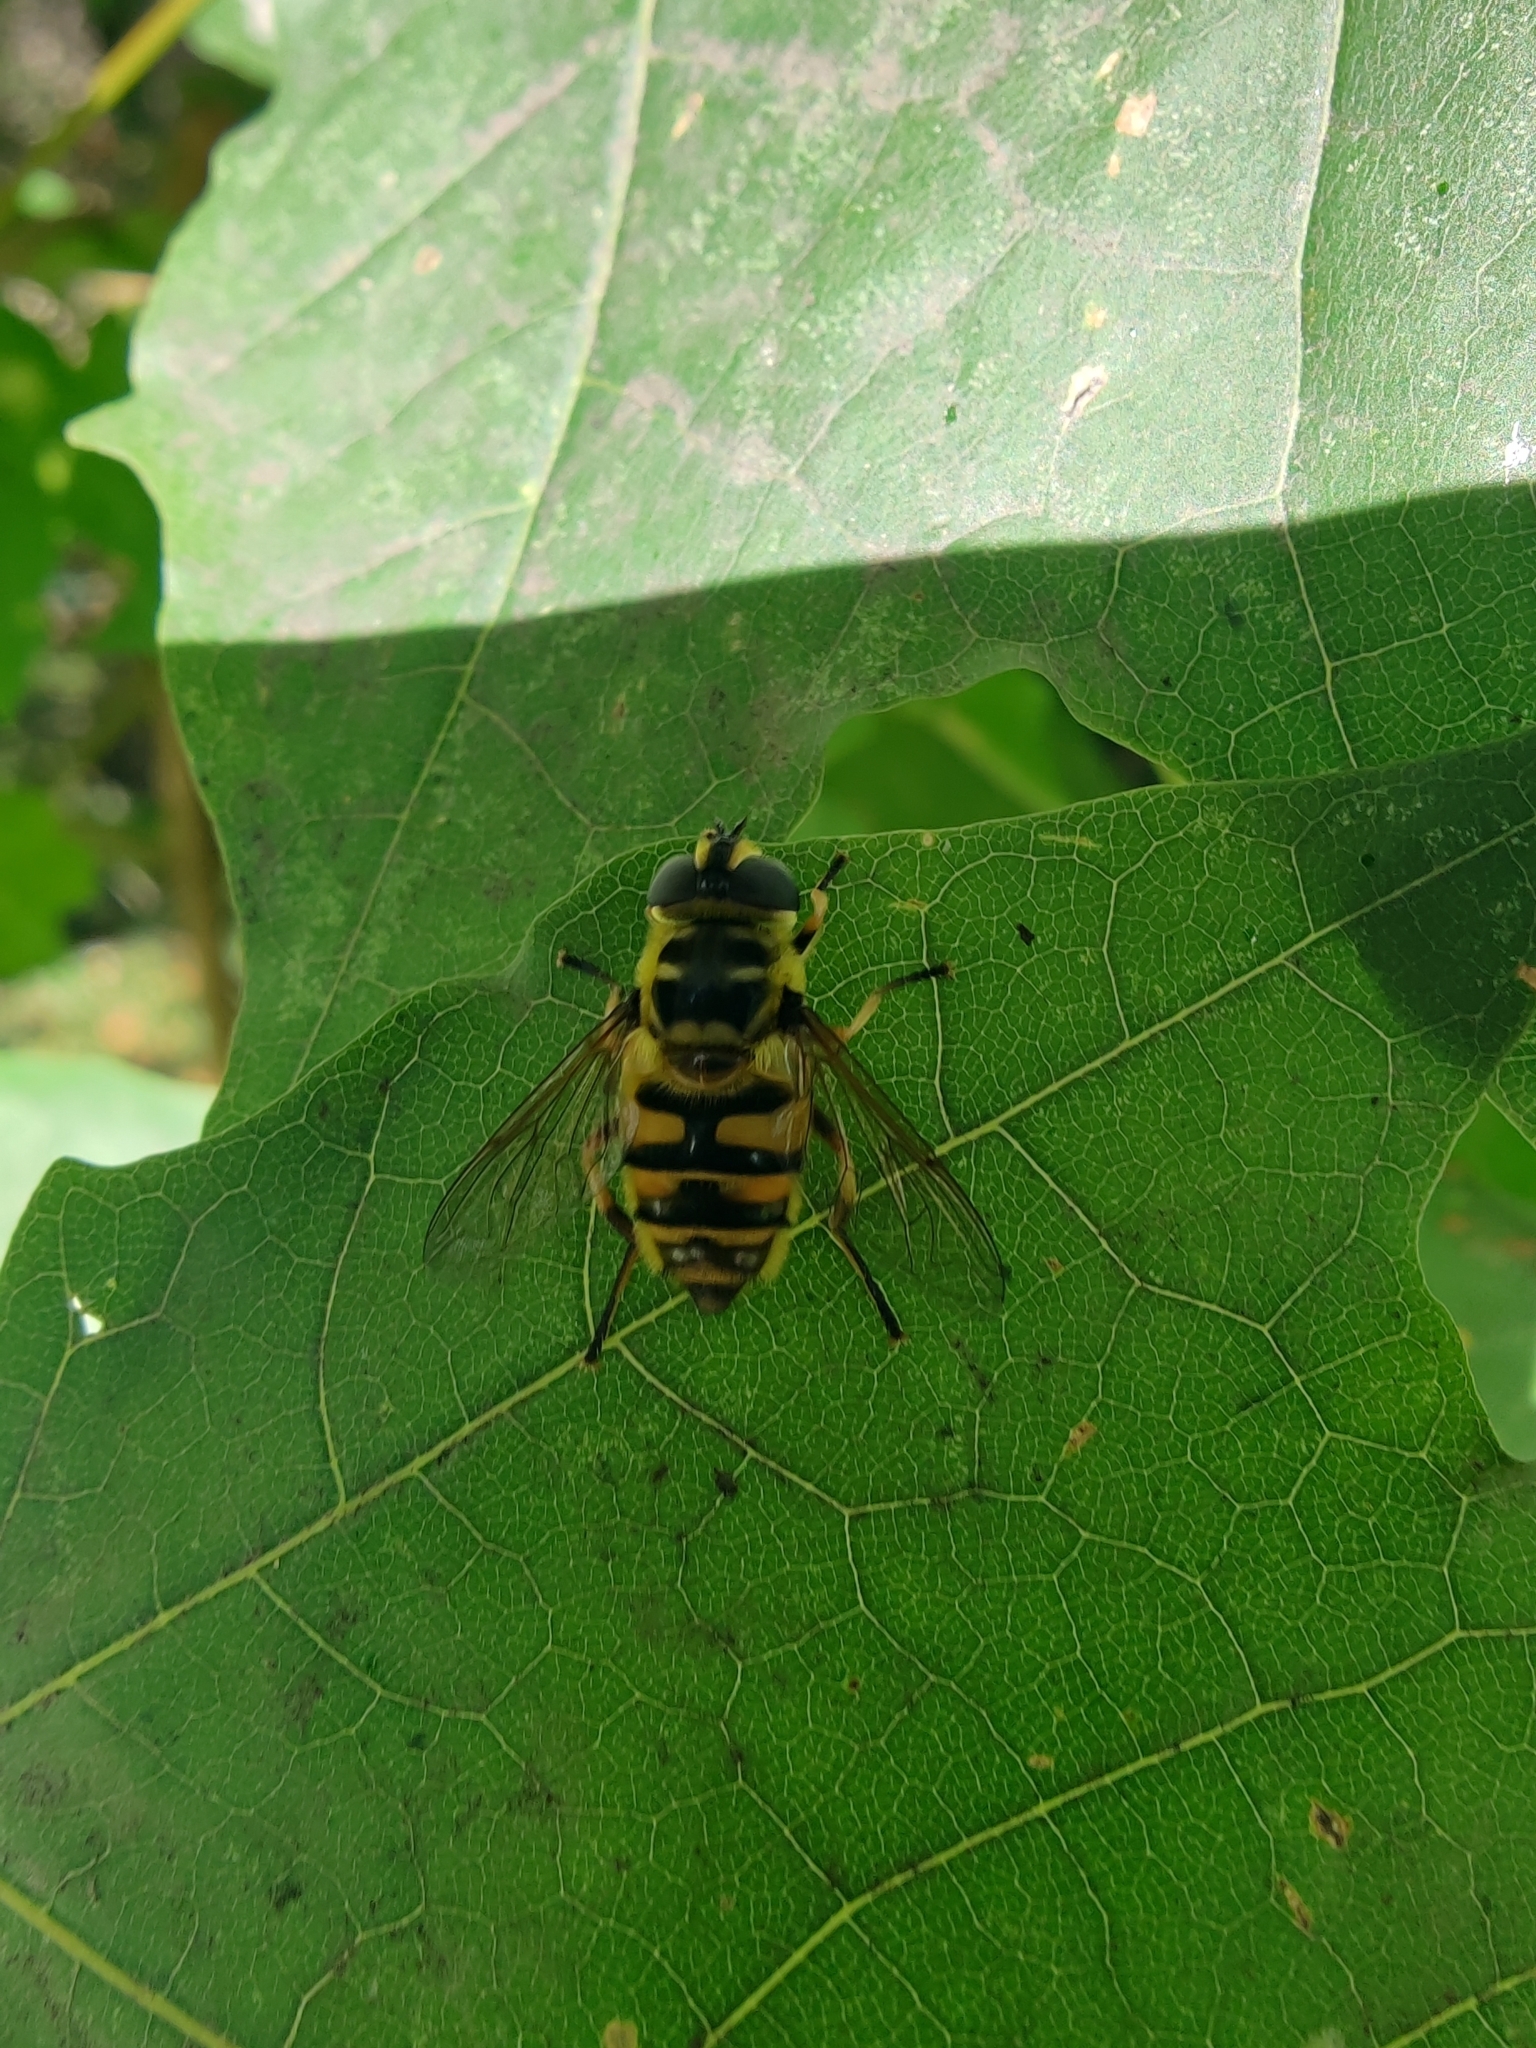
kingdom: Animalia
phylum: Arthropoda
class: Insecta
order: Diptera
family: Syrphidae
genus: Myathropa
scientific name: Myathropa florea
